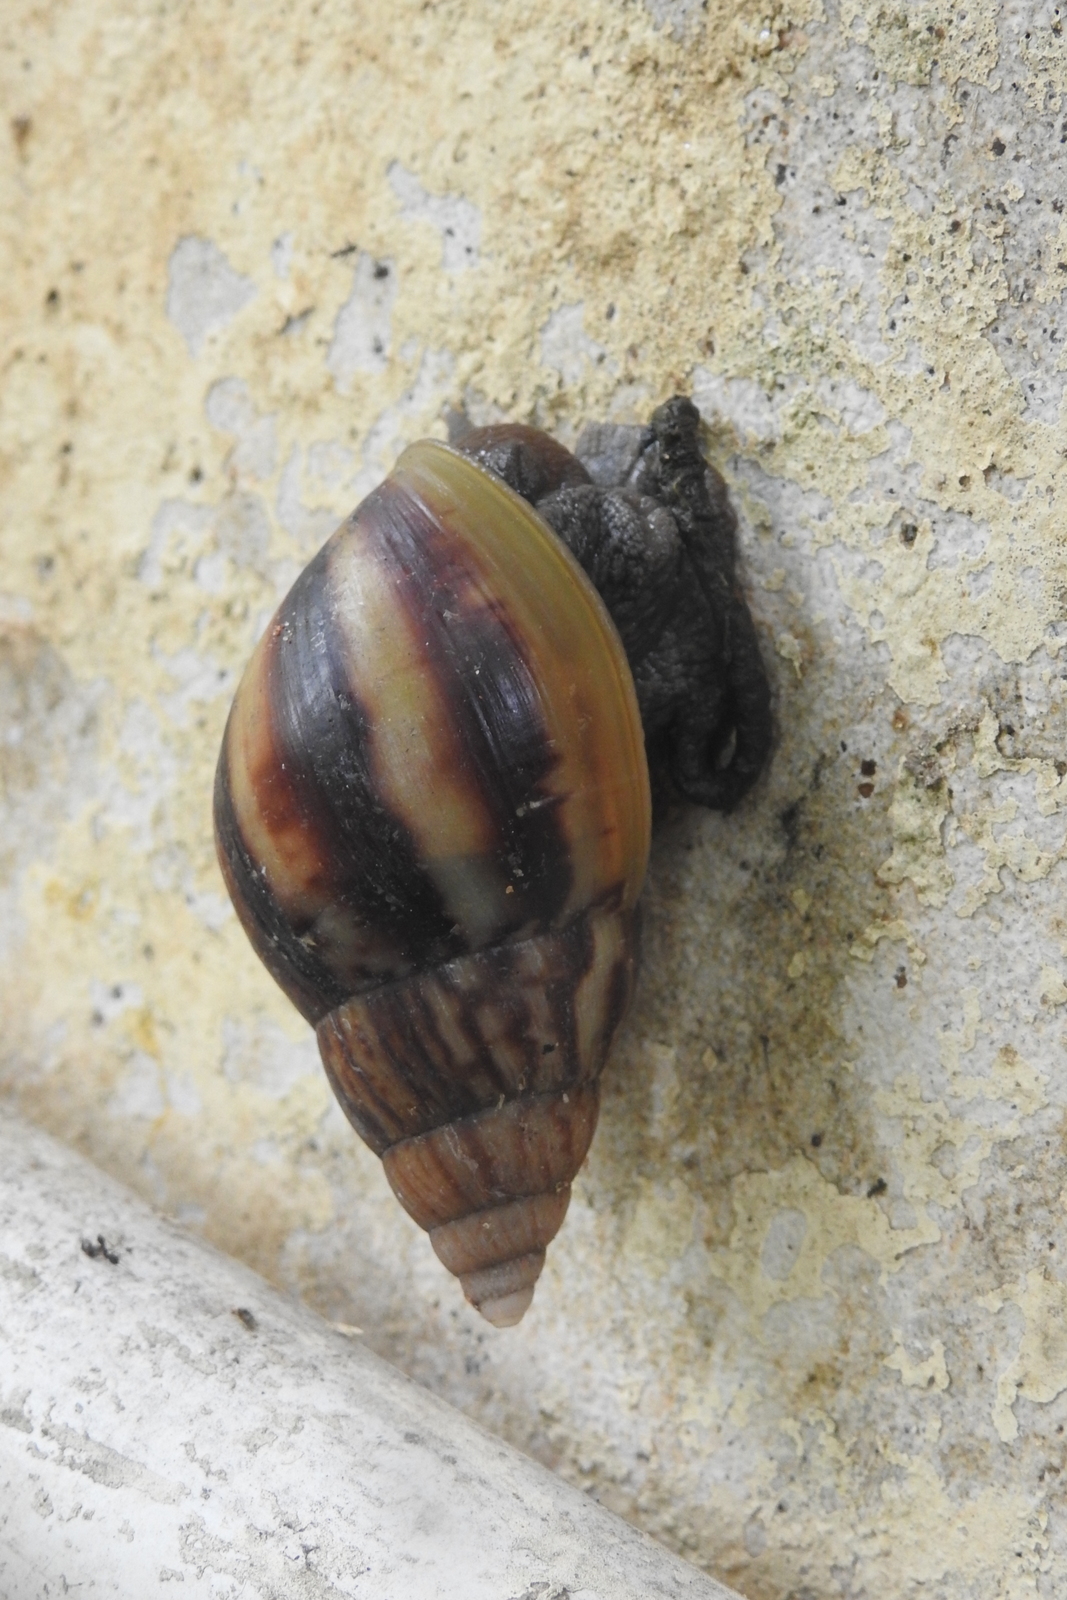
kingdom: Animalia
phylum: Mollusca
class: Gastropoda
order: Stylommatophora
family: Achatinidae
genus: Lissachatina
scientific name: Lissachatina fulica
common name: Giant african snail
